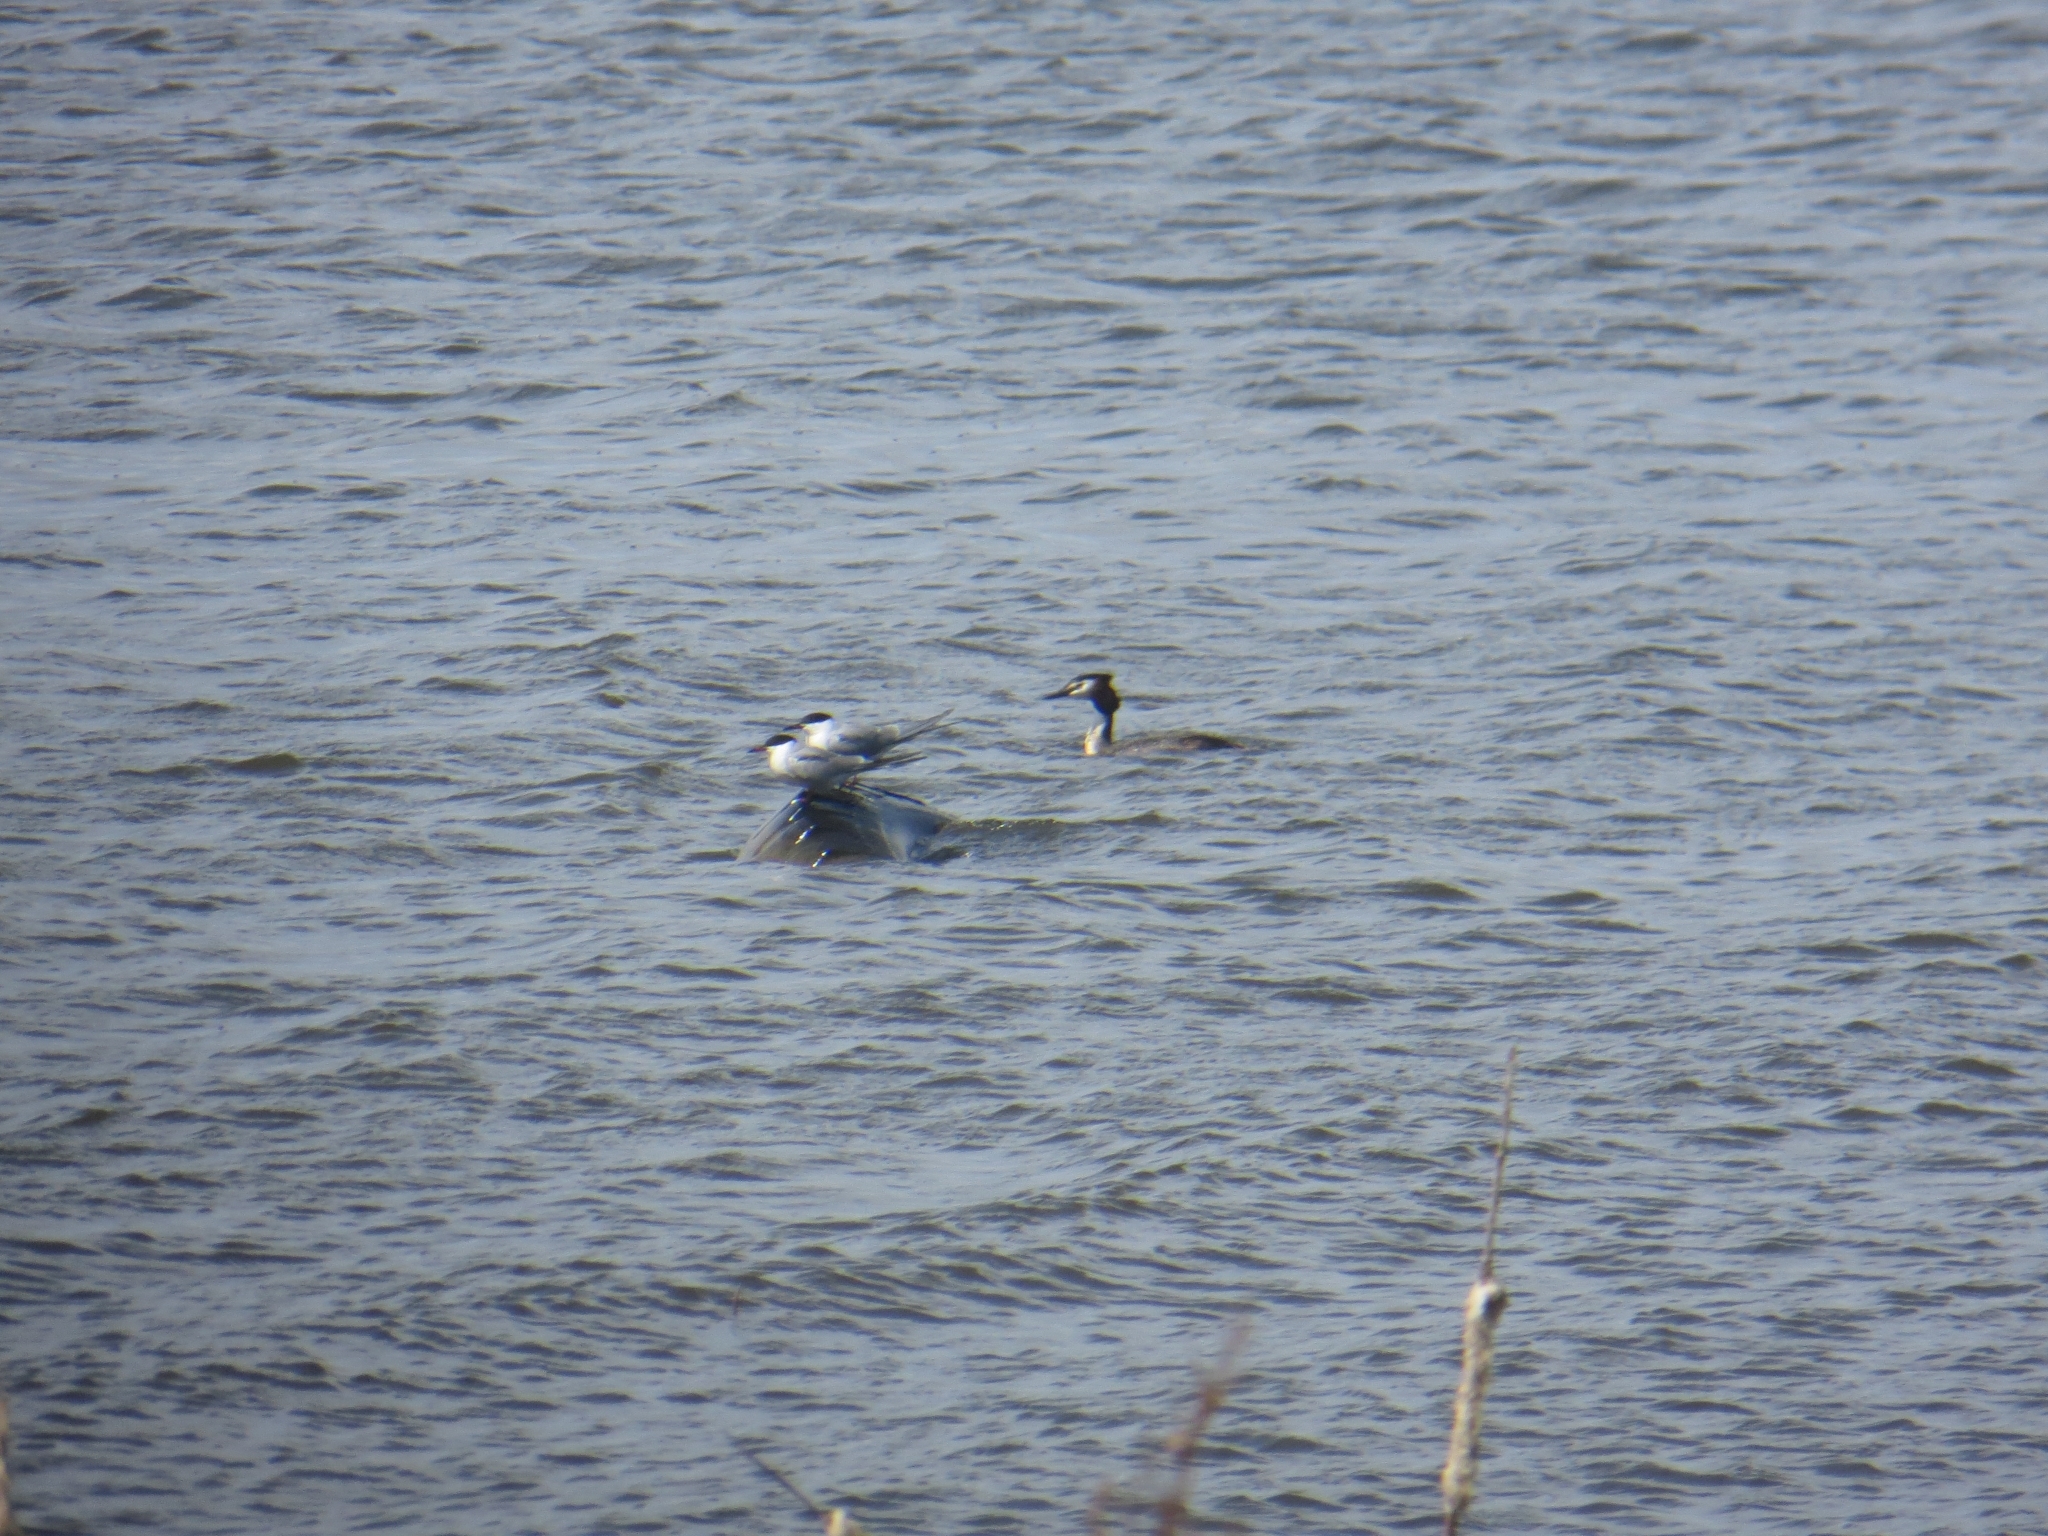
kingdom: Animalia
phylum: Chordata
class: Aves
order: Podicipediformes
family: Podicipedidae
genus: Podiceps
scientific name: Podiceps cristatus
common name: Great crested grebe
